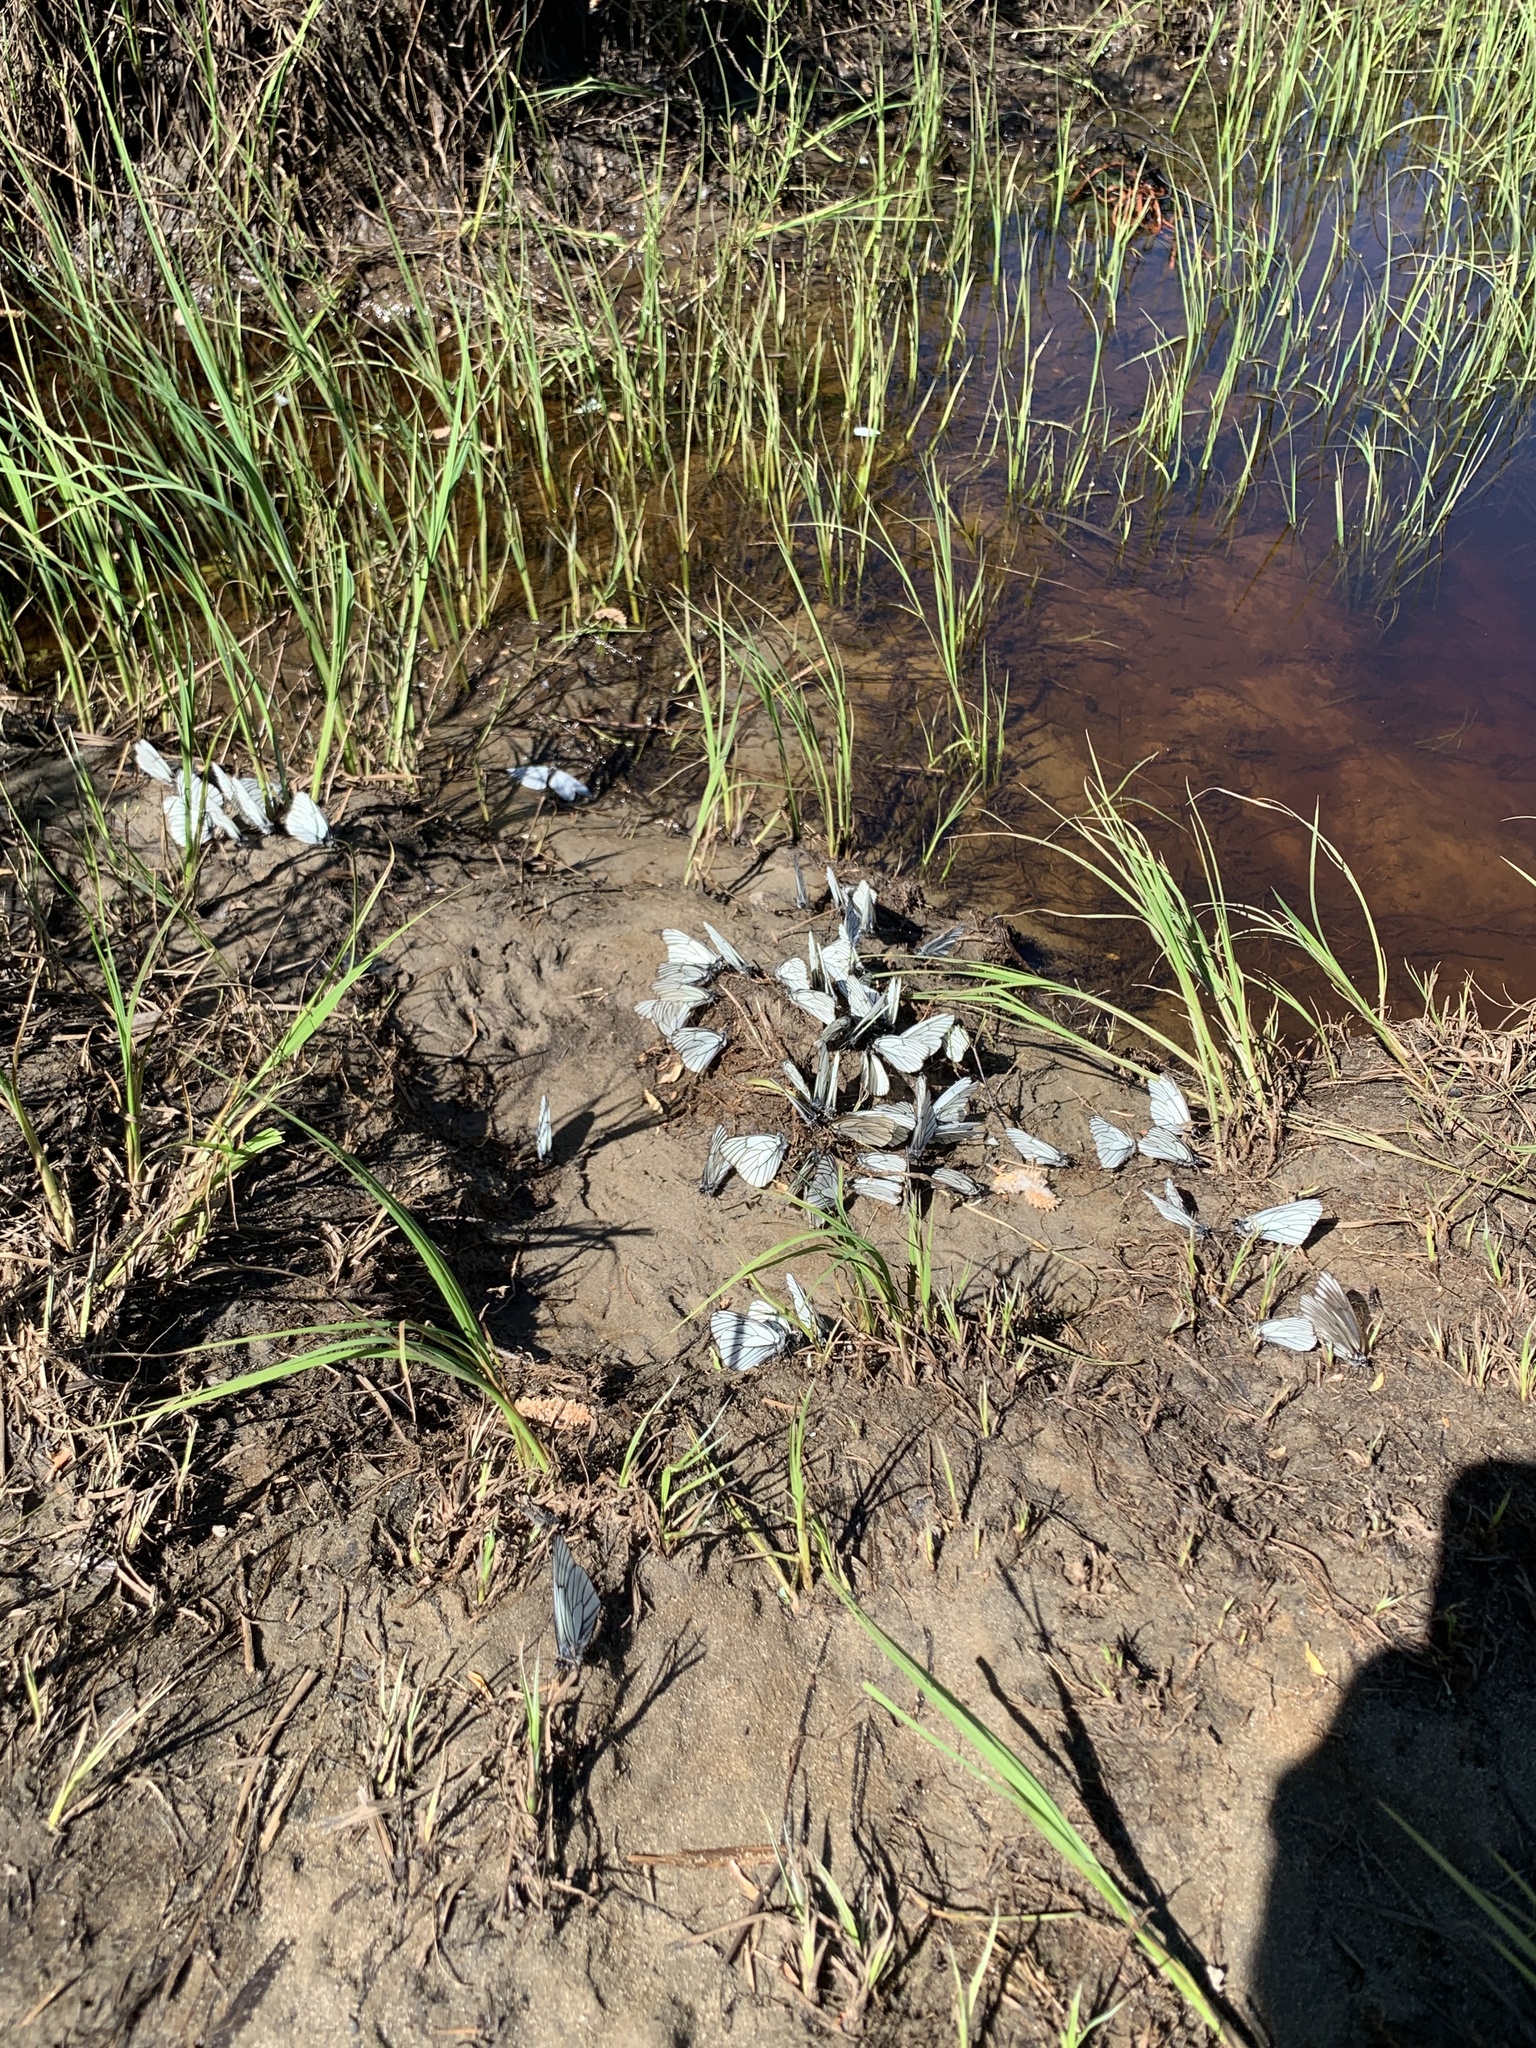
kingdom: Animalia
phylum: Arthropoda
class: Insecta
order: Lepidoptera
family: Pieridae
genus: Aporia
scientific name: Aporia crataegi
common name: Black-veined white
